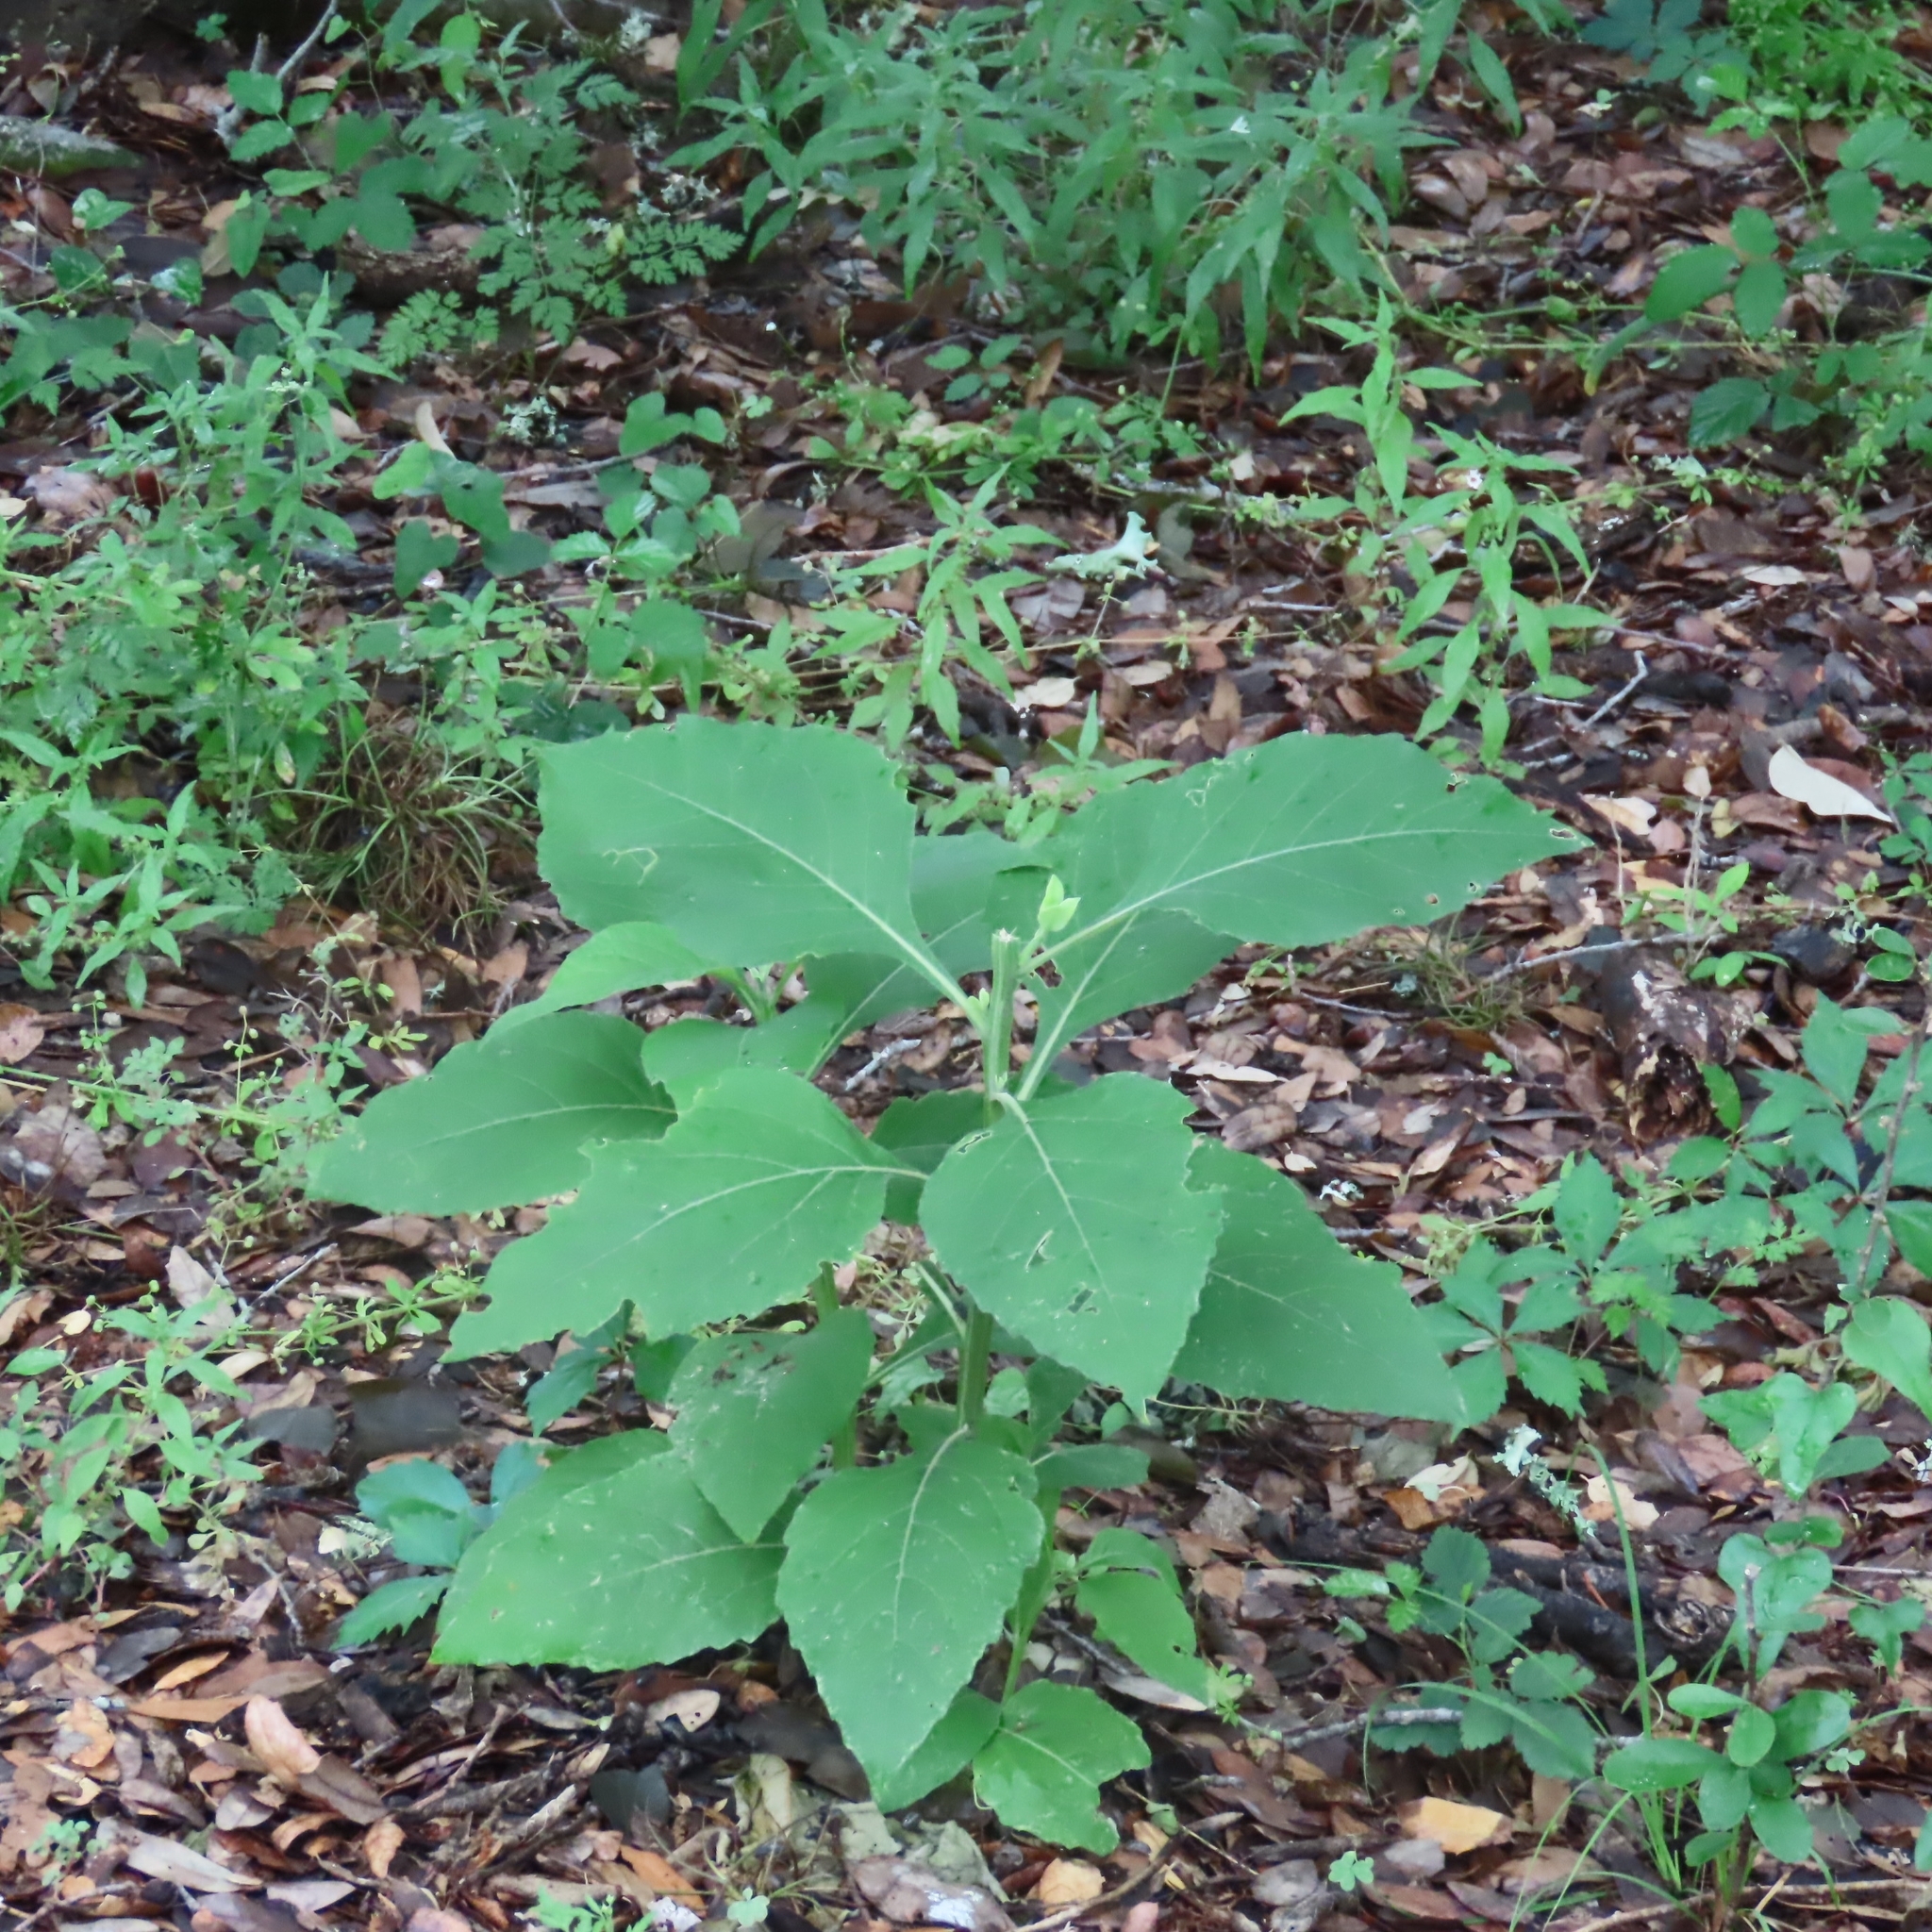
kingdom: Plantae
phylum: Tracheophyta
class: Magnoliopsida
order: Asterales
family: Asteraceae
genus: Verbesina
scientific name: Verbesina virginica
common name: Frostweed
